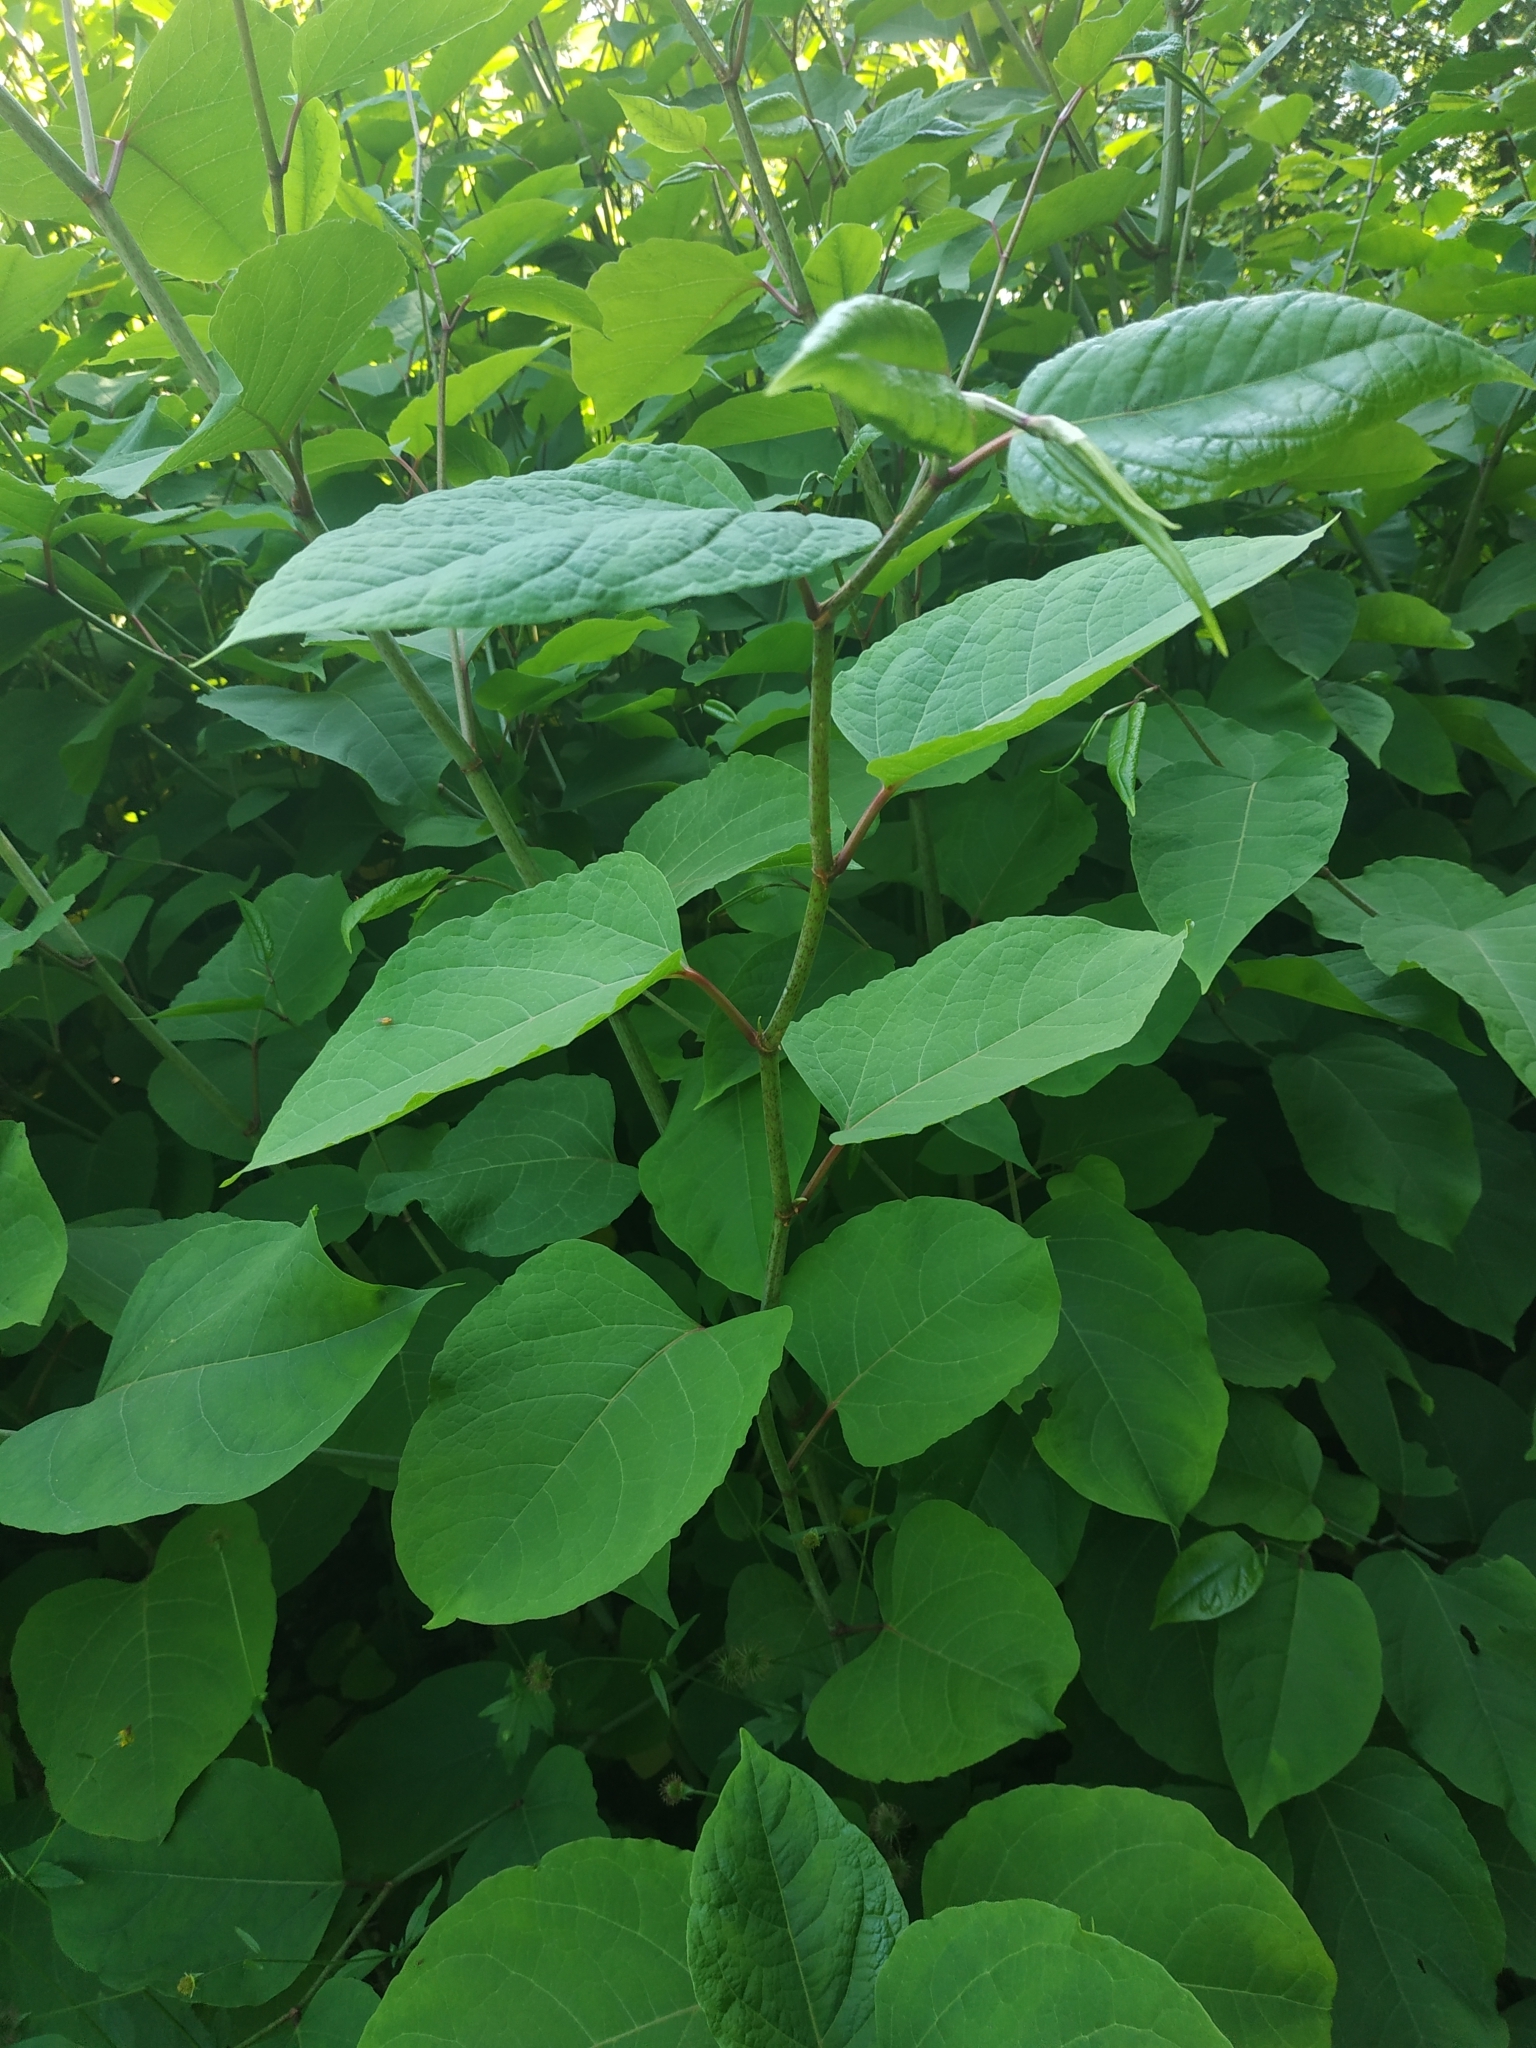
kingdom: Plantae
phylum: Tracheophyta
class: Magnoliopsida
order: Caryophyllales
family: Polygonaceae
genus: Reynoutria
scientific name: Reynoutria bohemica
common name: Bohemian knotweed
